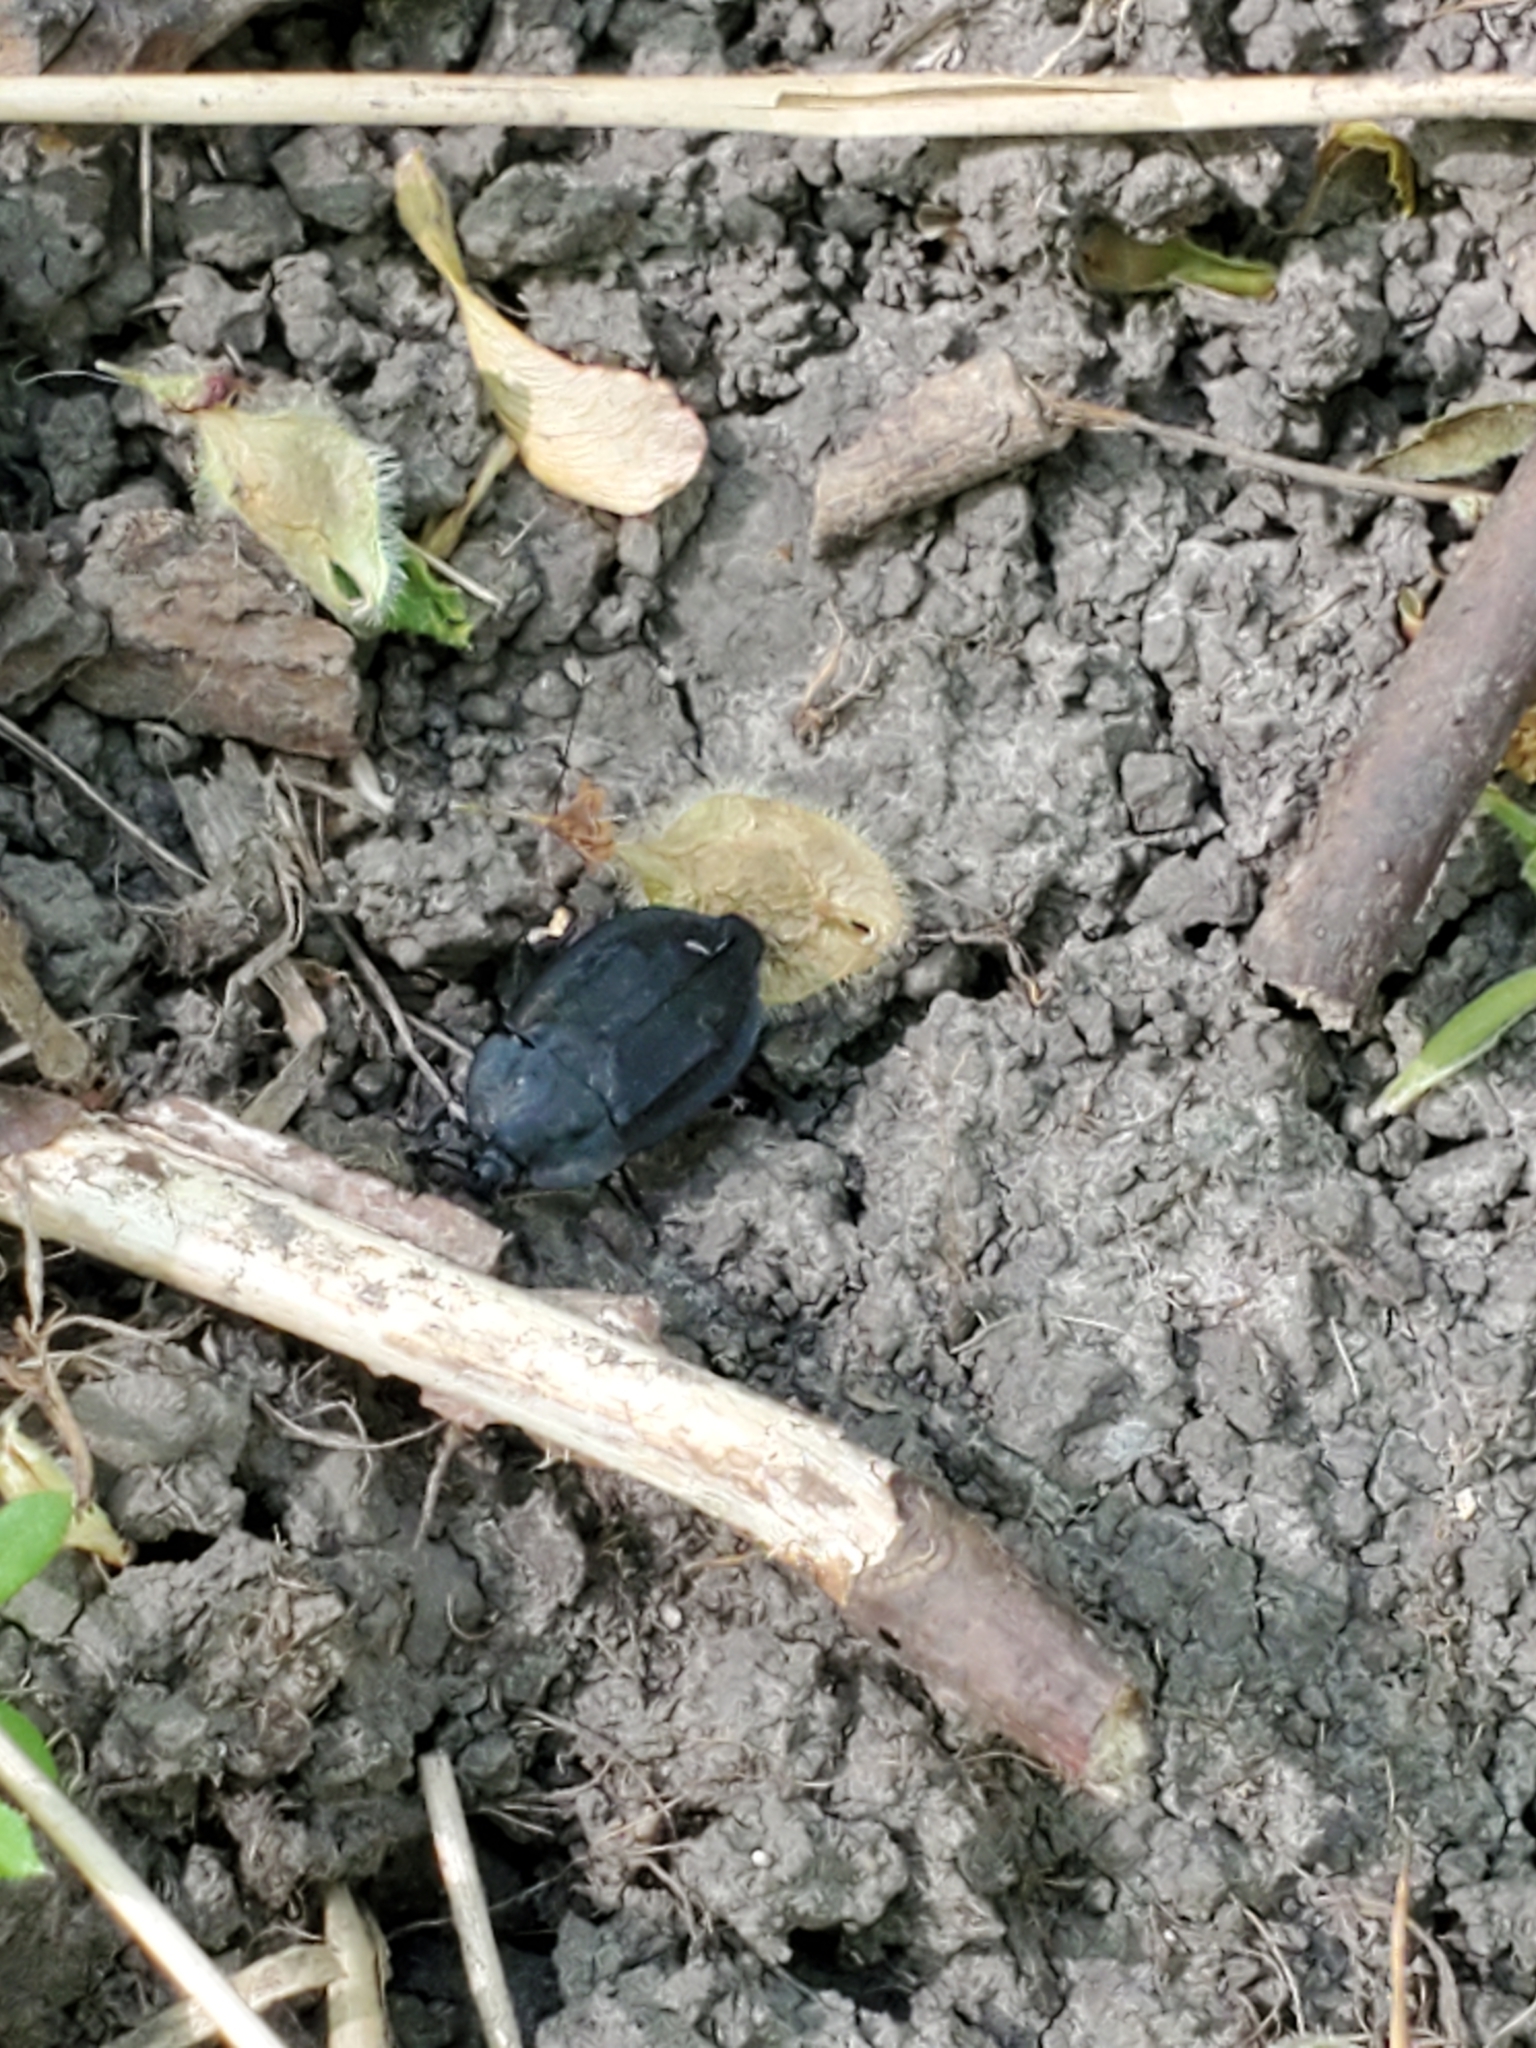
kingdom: Animalia
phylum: Arthropoda
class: Insecta
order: Coleoptera
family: Staphylinidae
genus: Oiceoptoma
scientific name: Oiceoptoma inaequale
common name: Ridged carrion beetle
